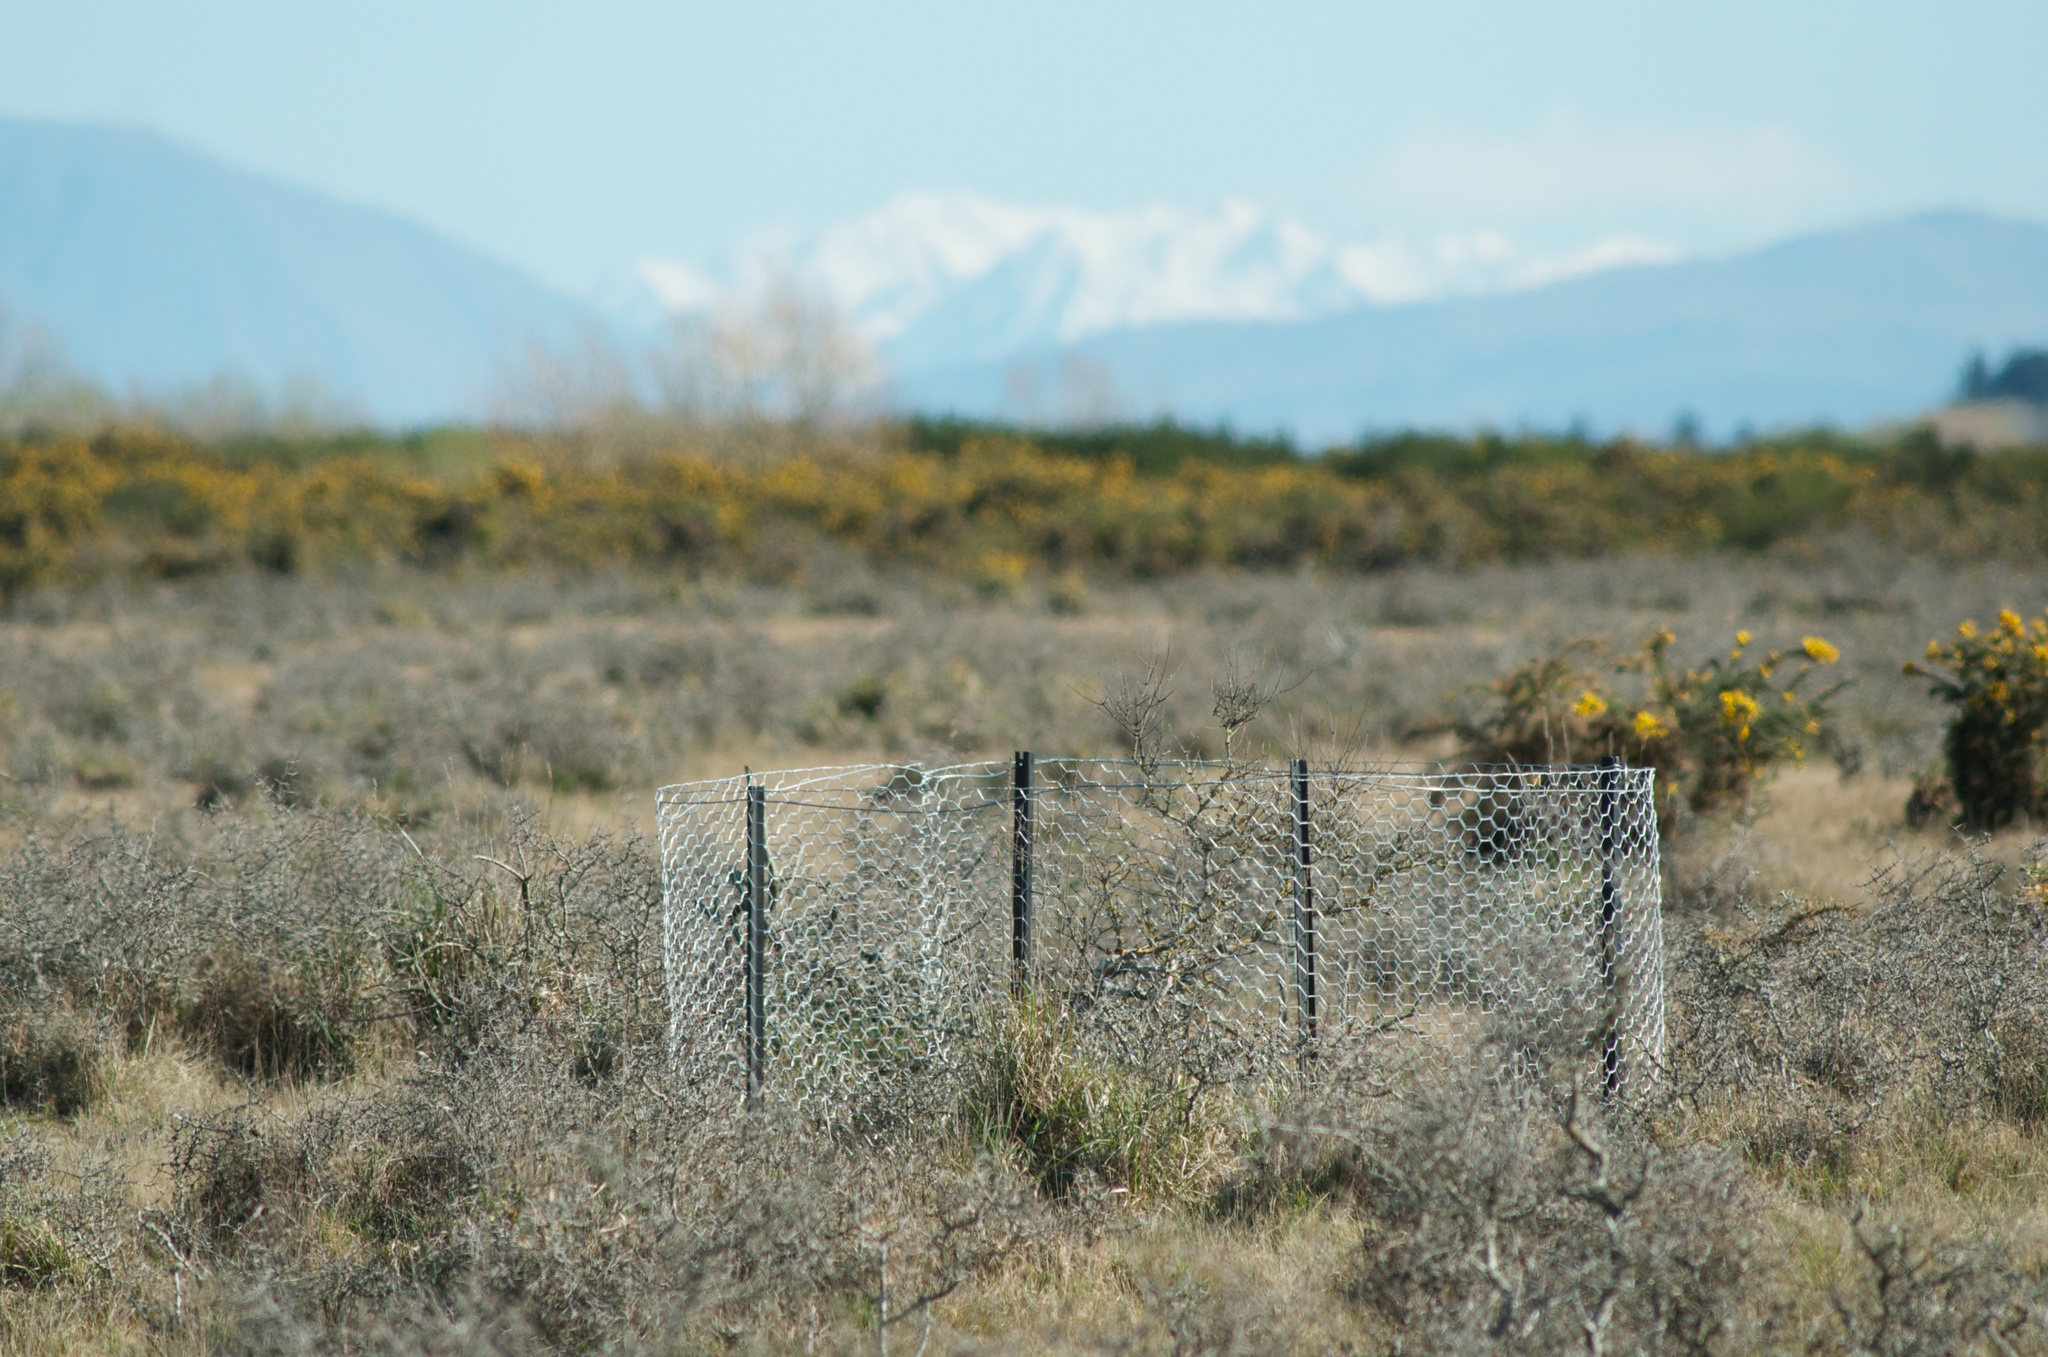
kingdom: Plantae
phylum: Tracheophyta
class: Magnoliopsida
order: Asterales
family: Asteraceae
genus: Olearia
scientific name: Olearia adenocarpa
